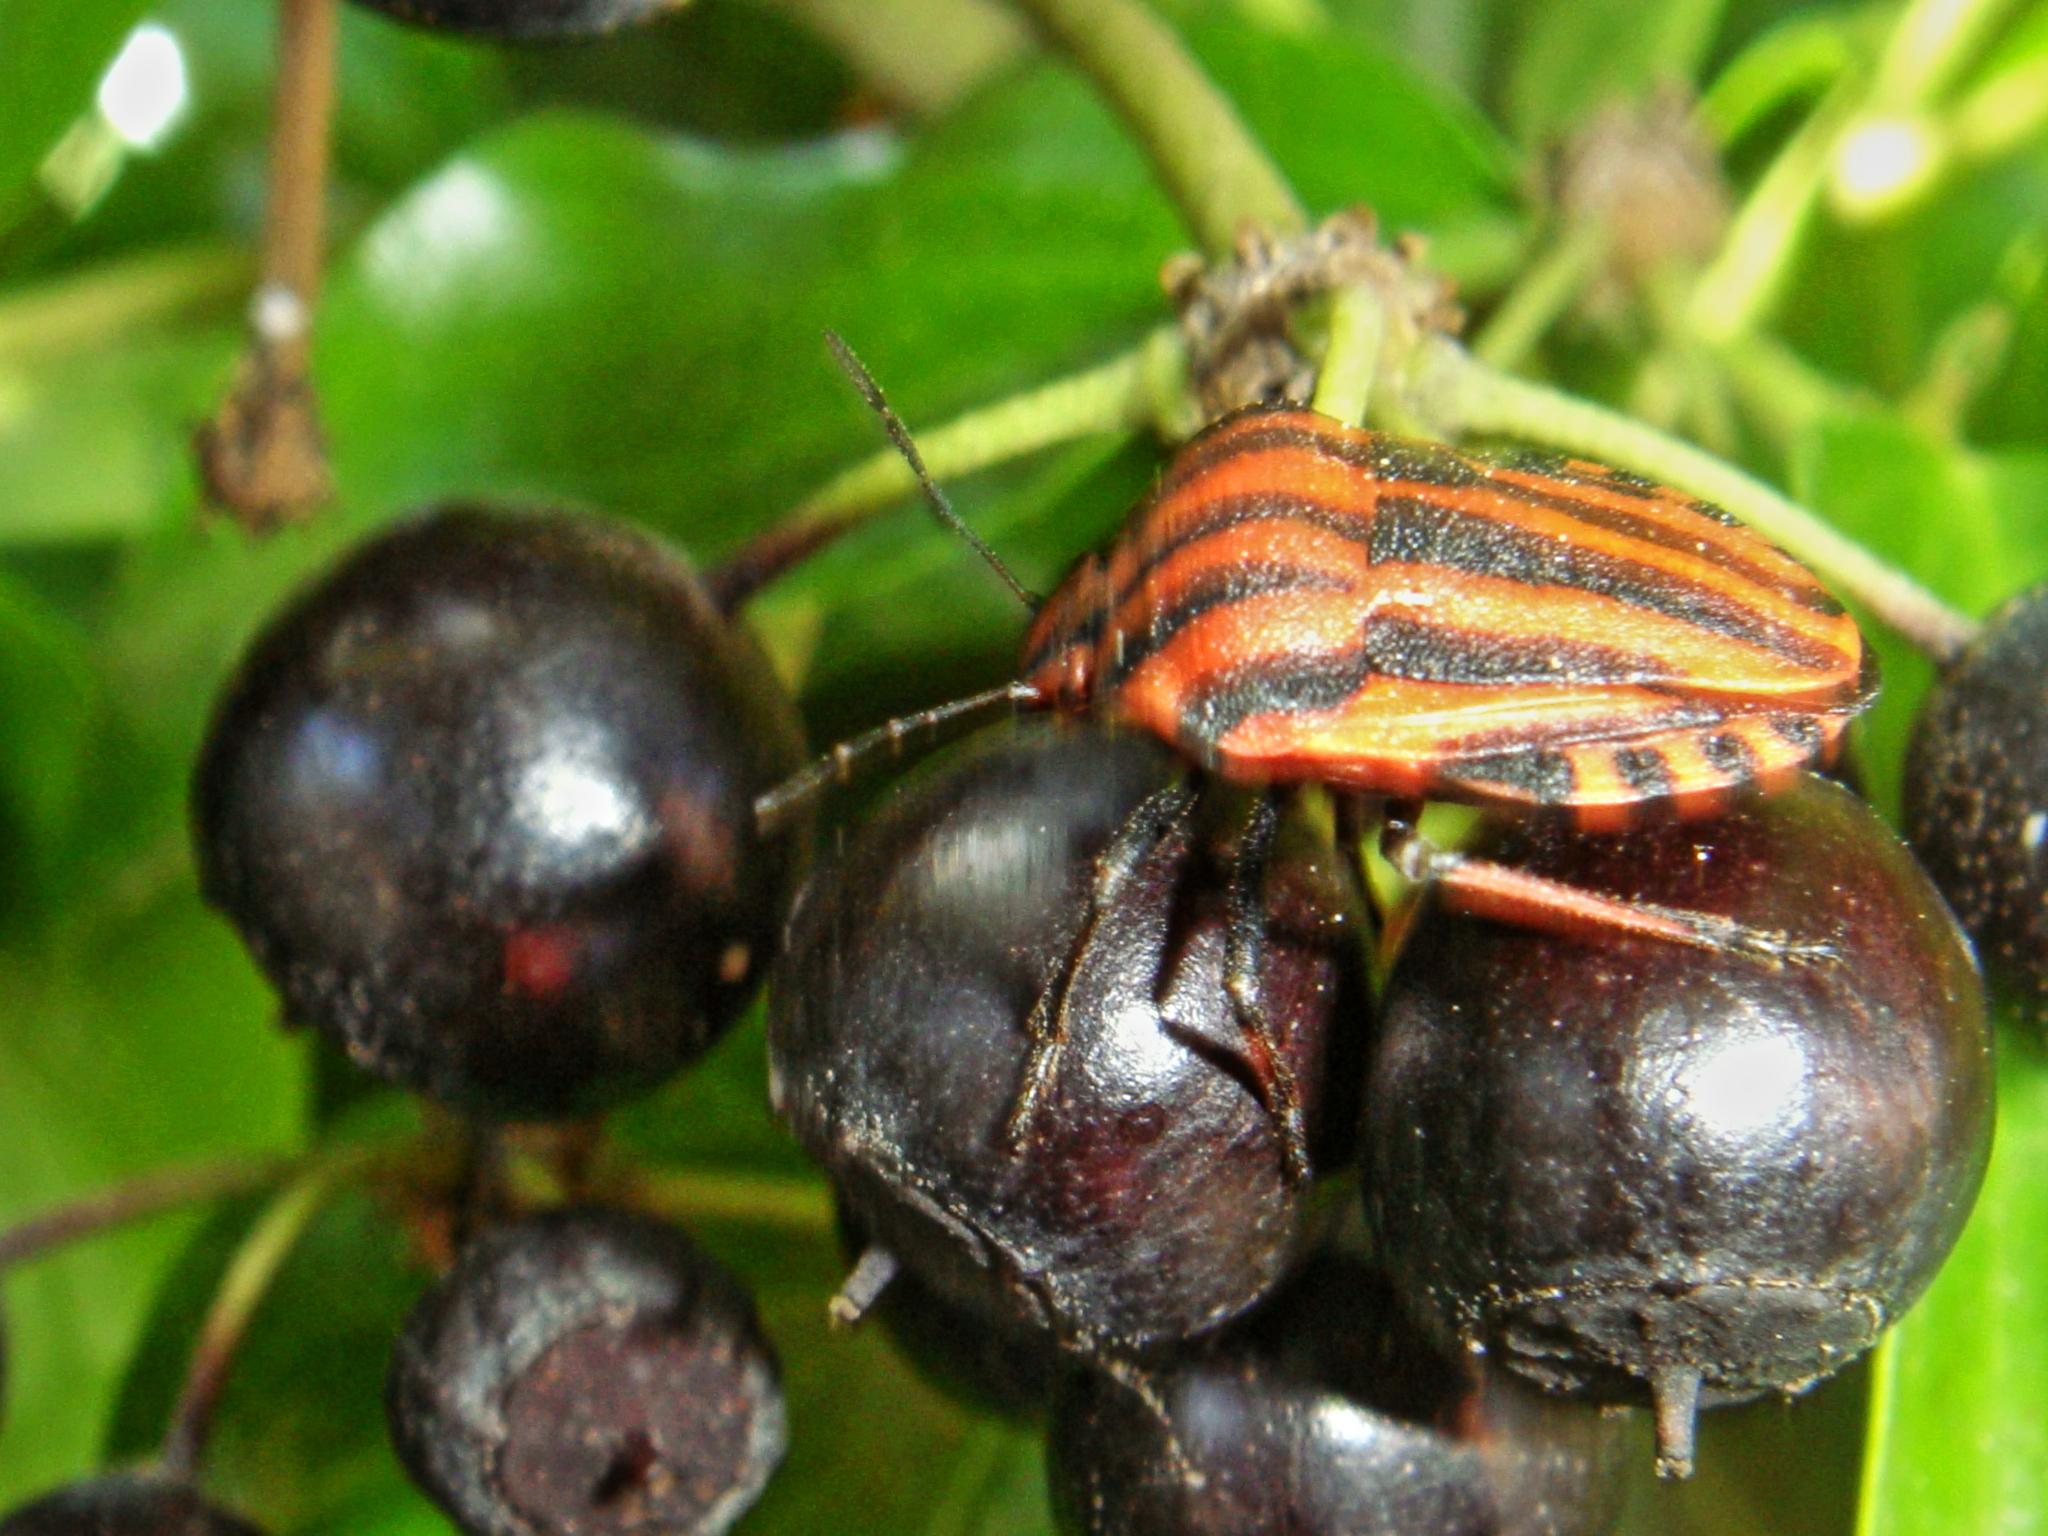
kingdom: Animalia
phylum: Arthropoda
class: Insecta
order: Hemiptera
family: Pentatomidae
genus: Graphosoma
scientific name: Graphosoma italicum
